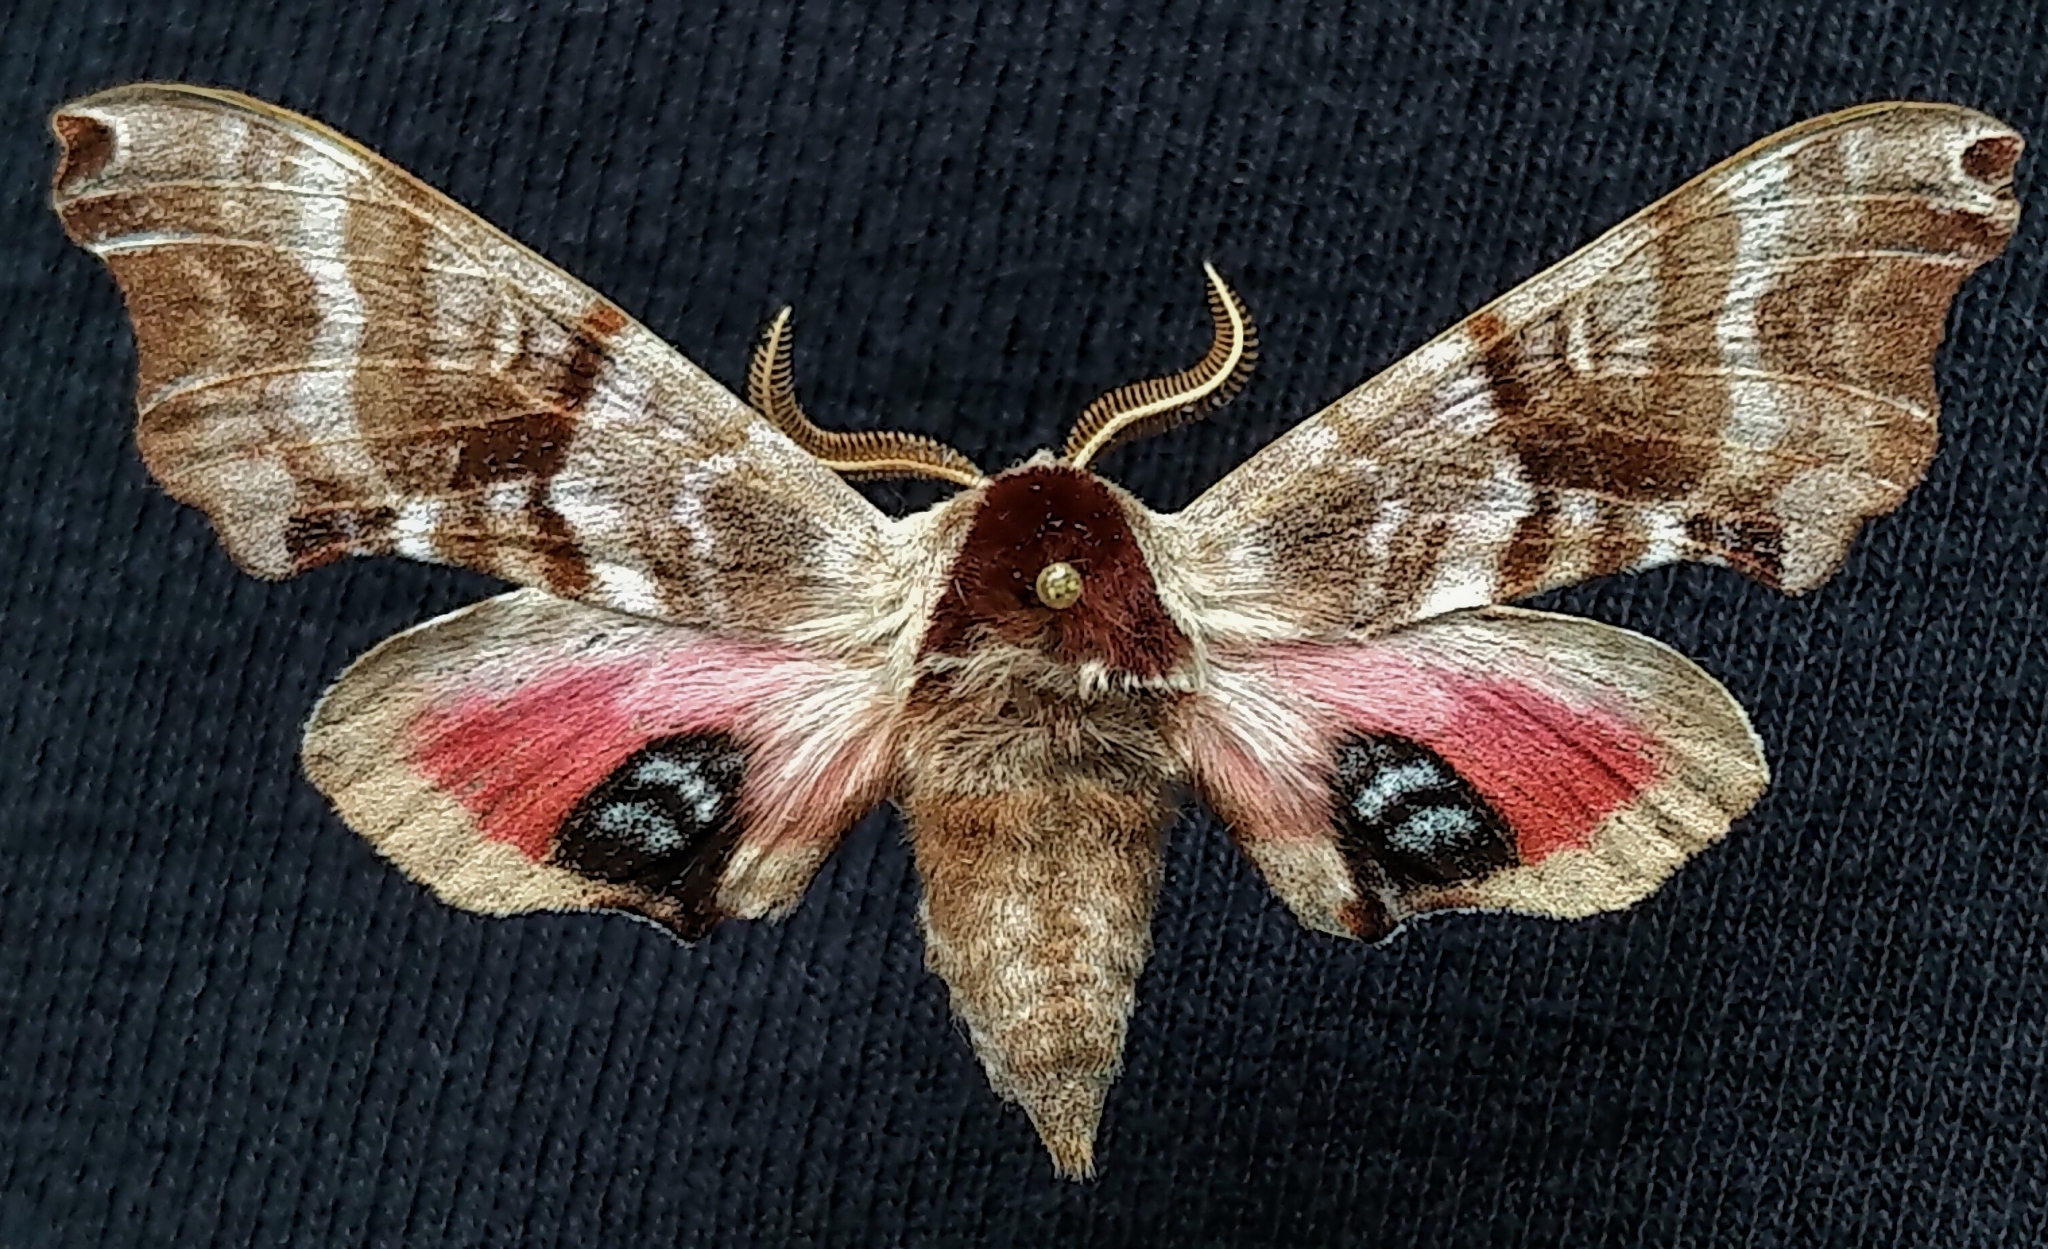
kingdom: Animalia
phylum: Arthropoda
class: Insecta
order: Lepidoptera
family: Sphingidae
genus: Smerinthus
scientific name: Smerinthus jamaicensis
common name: Twin spotted sphinx
